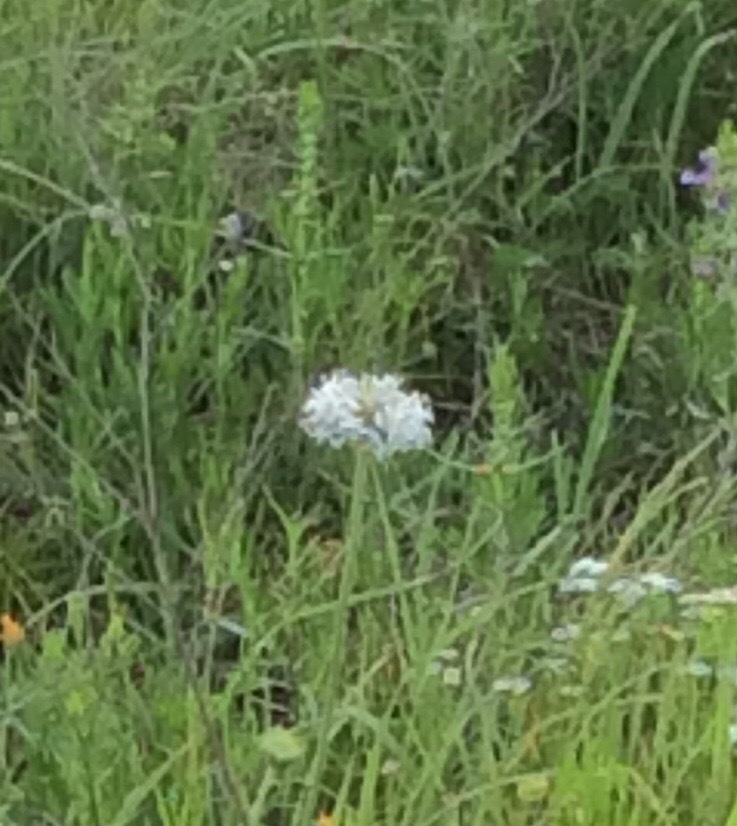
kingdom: Plantae
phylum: Tracheophyta
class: Magnoliopsida
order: Asterales
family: Asteraceae
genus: Marshallia
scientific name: Marshallia caespitosa
